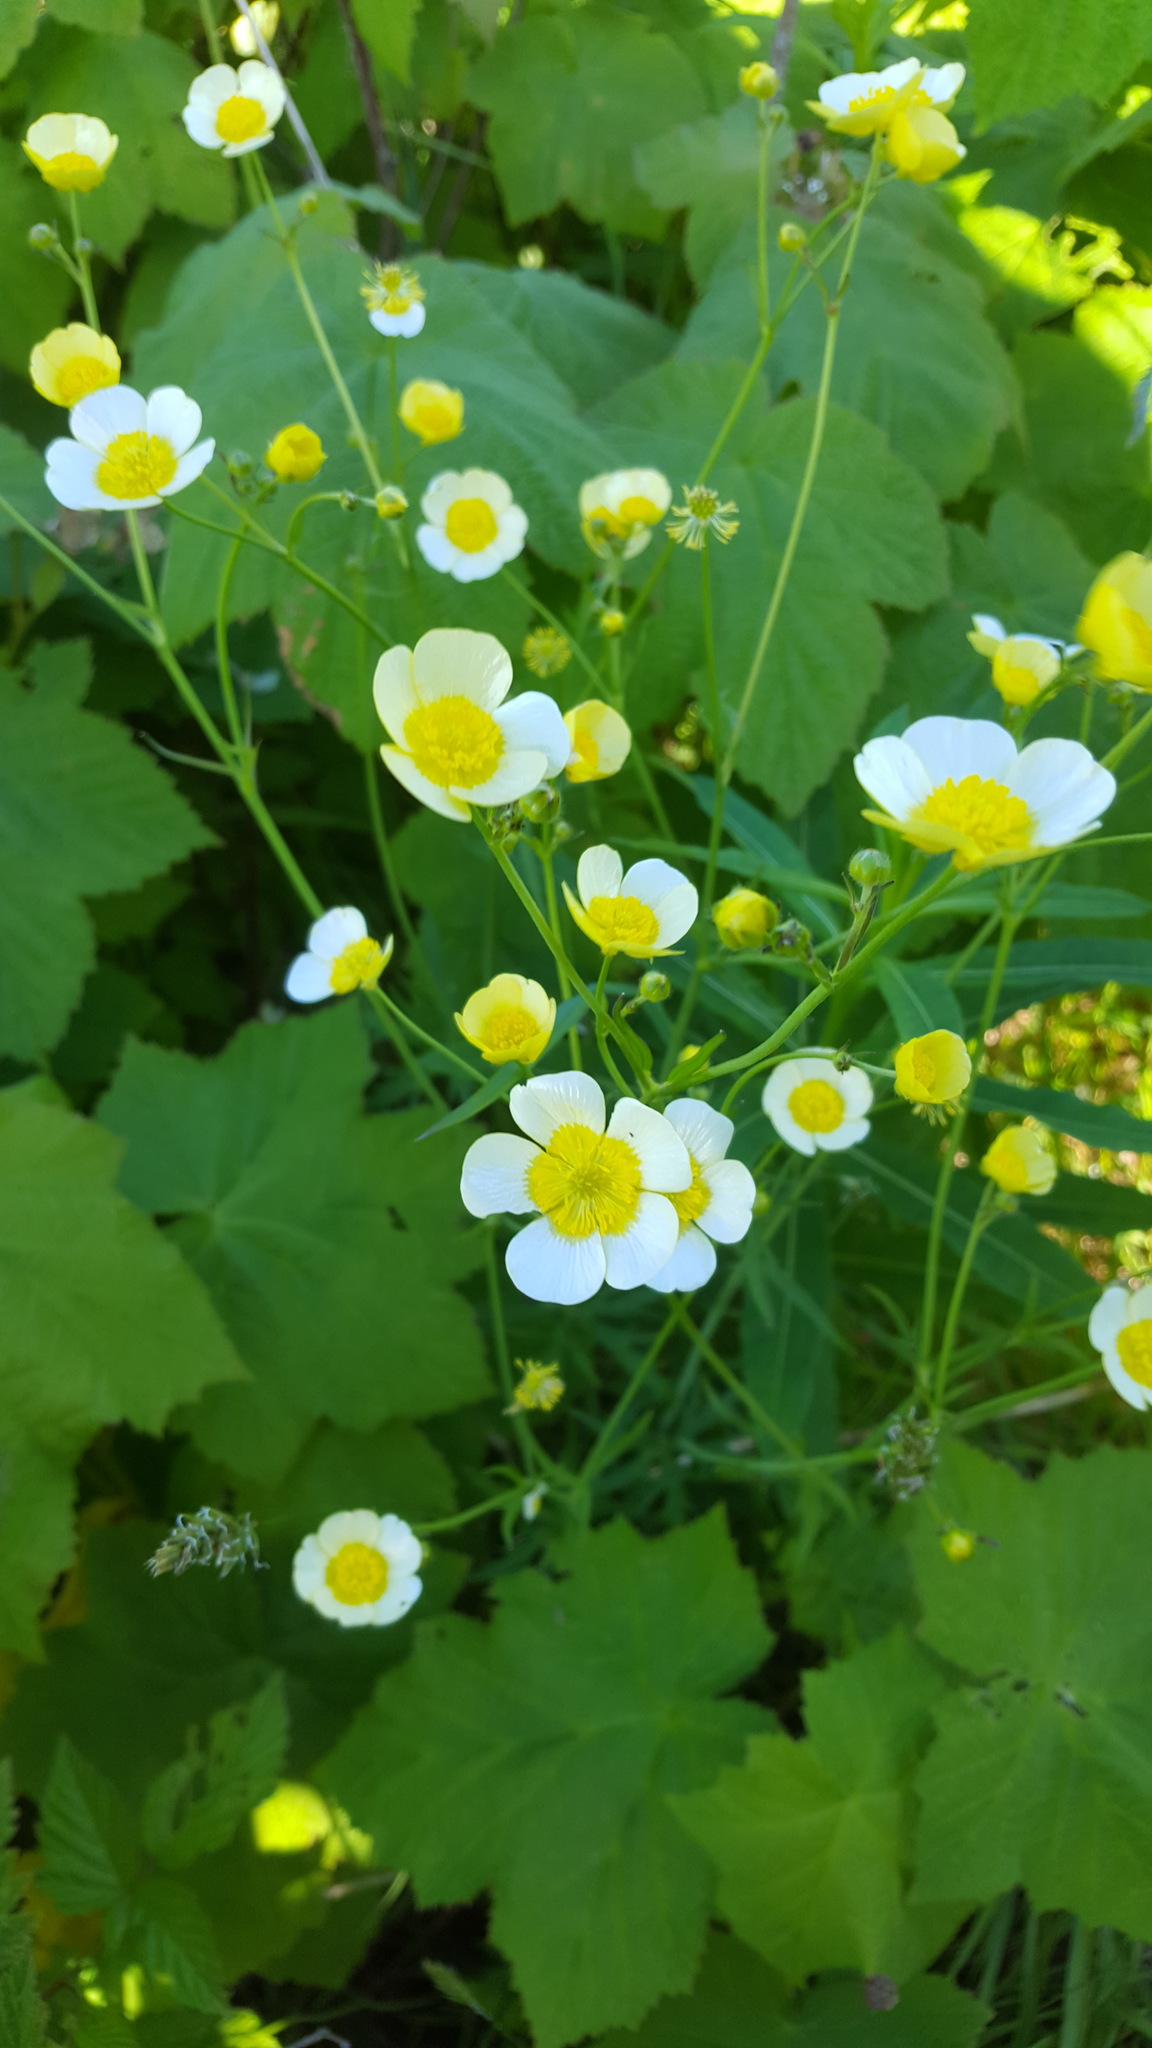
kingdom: Plantae
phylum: Tracheophyta
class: Magnoliopsida
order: Ranunculales
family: Ranunculaceae
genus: Ranunculus
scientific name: Ranunculus acris
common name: Meadow buttercup
